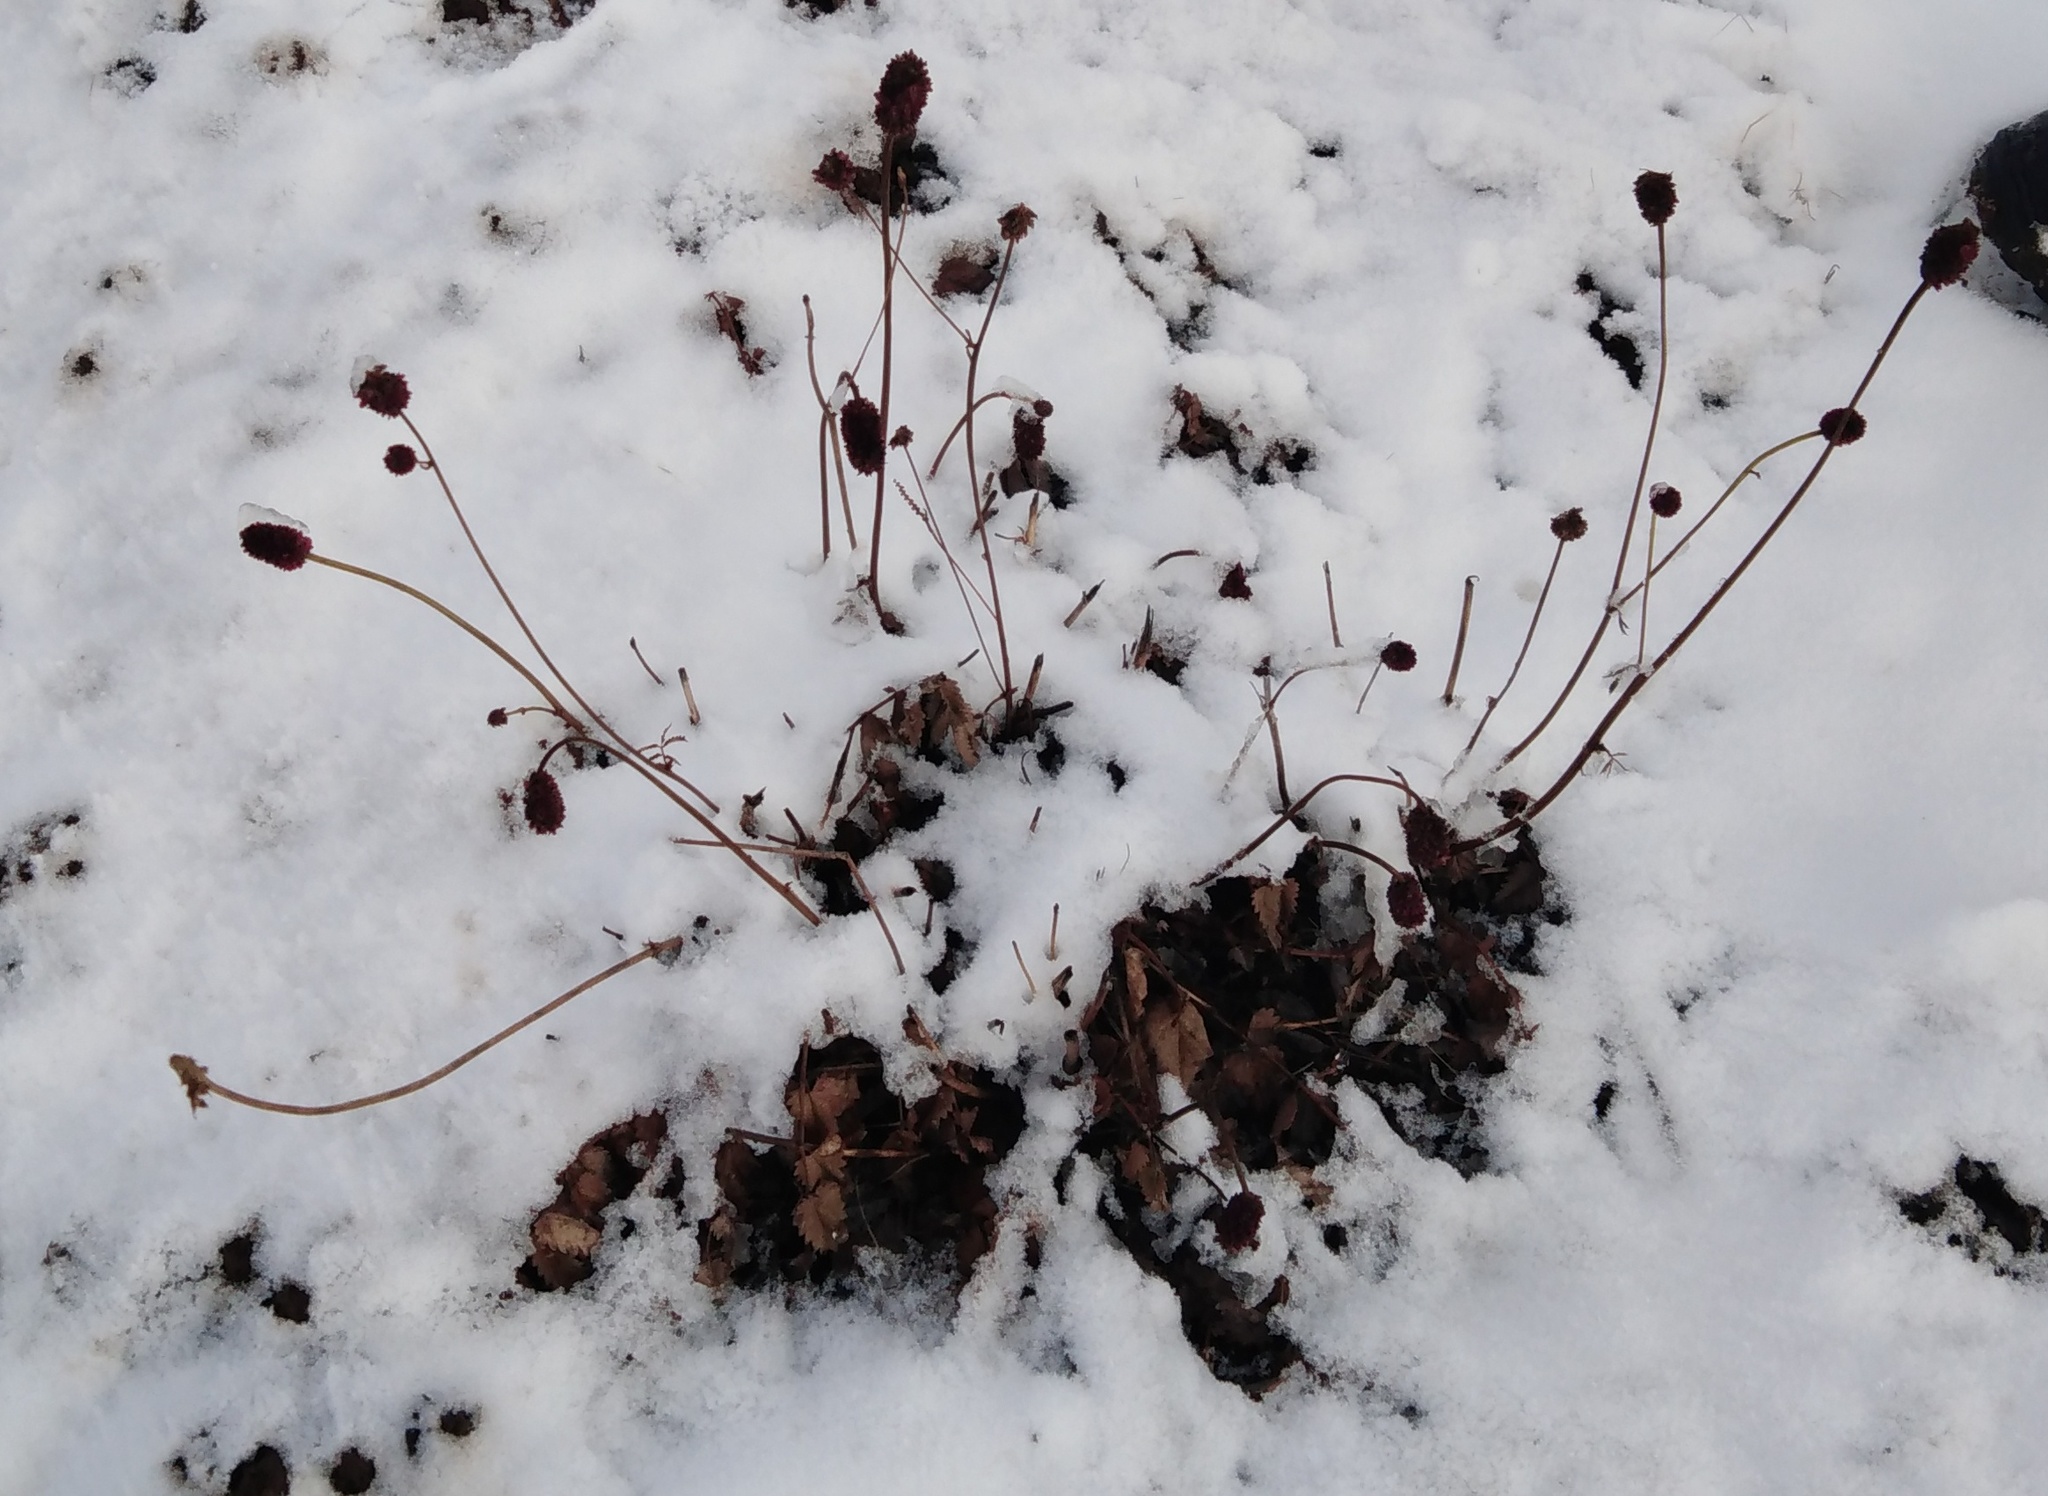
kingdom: Plantae
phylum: Tracheophyta
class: Magnoliopsida
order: Rosales
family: Rosaceae
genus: Sanguisorba
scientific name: Sanguisorba officinalis
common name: Great burnet
